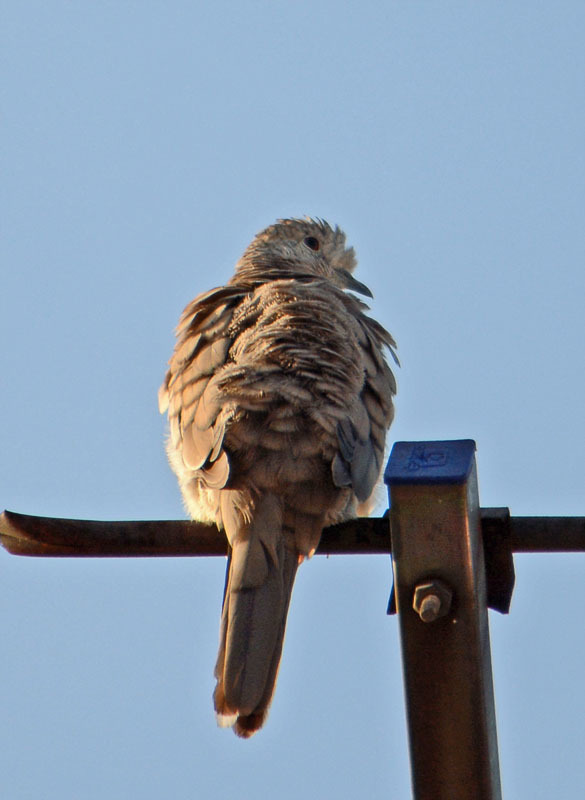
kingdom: Animalia
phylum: Chordata
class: Aves
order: Columbiformes
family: Columbidae
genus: Columbina
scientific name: Columbina inca
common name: Inca dove
